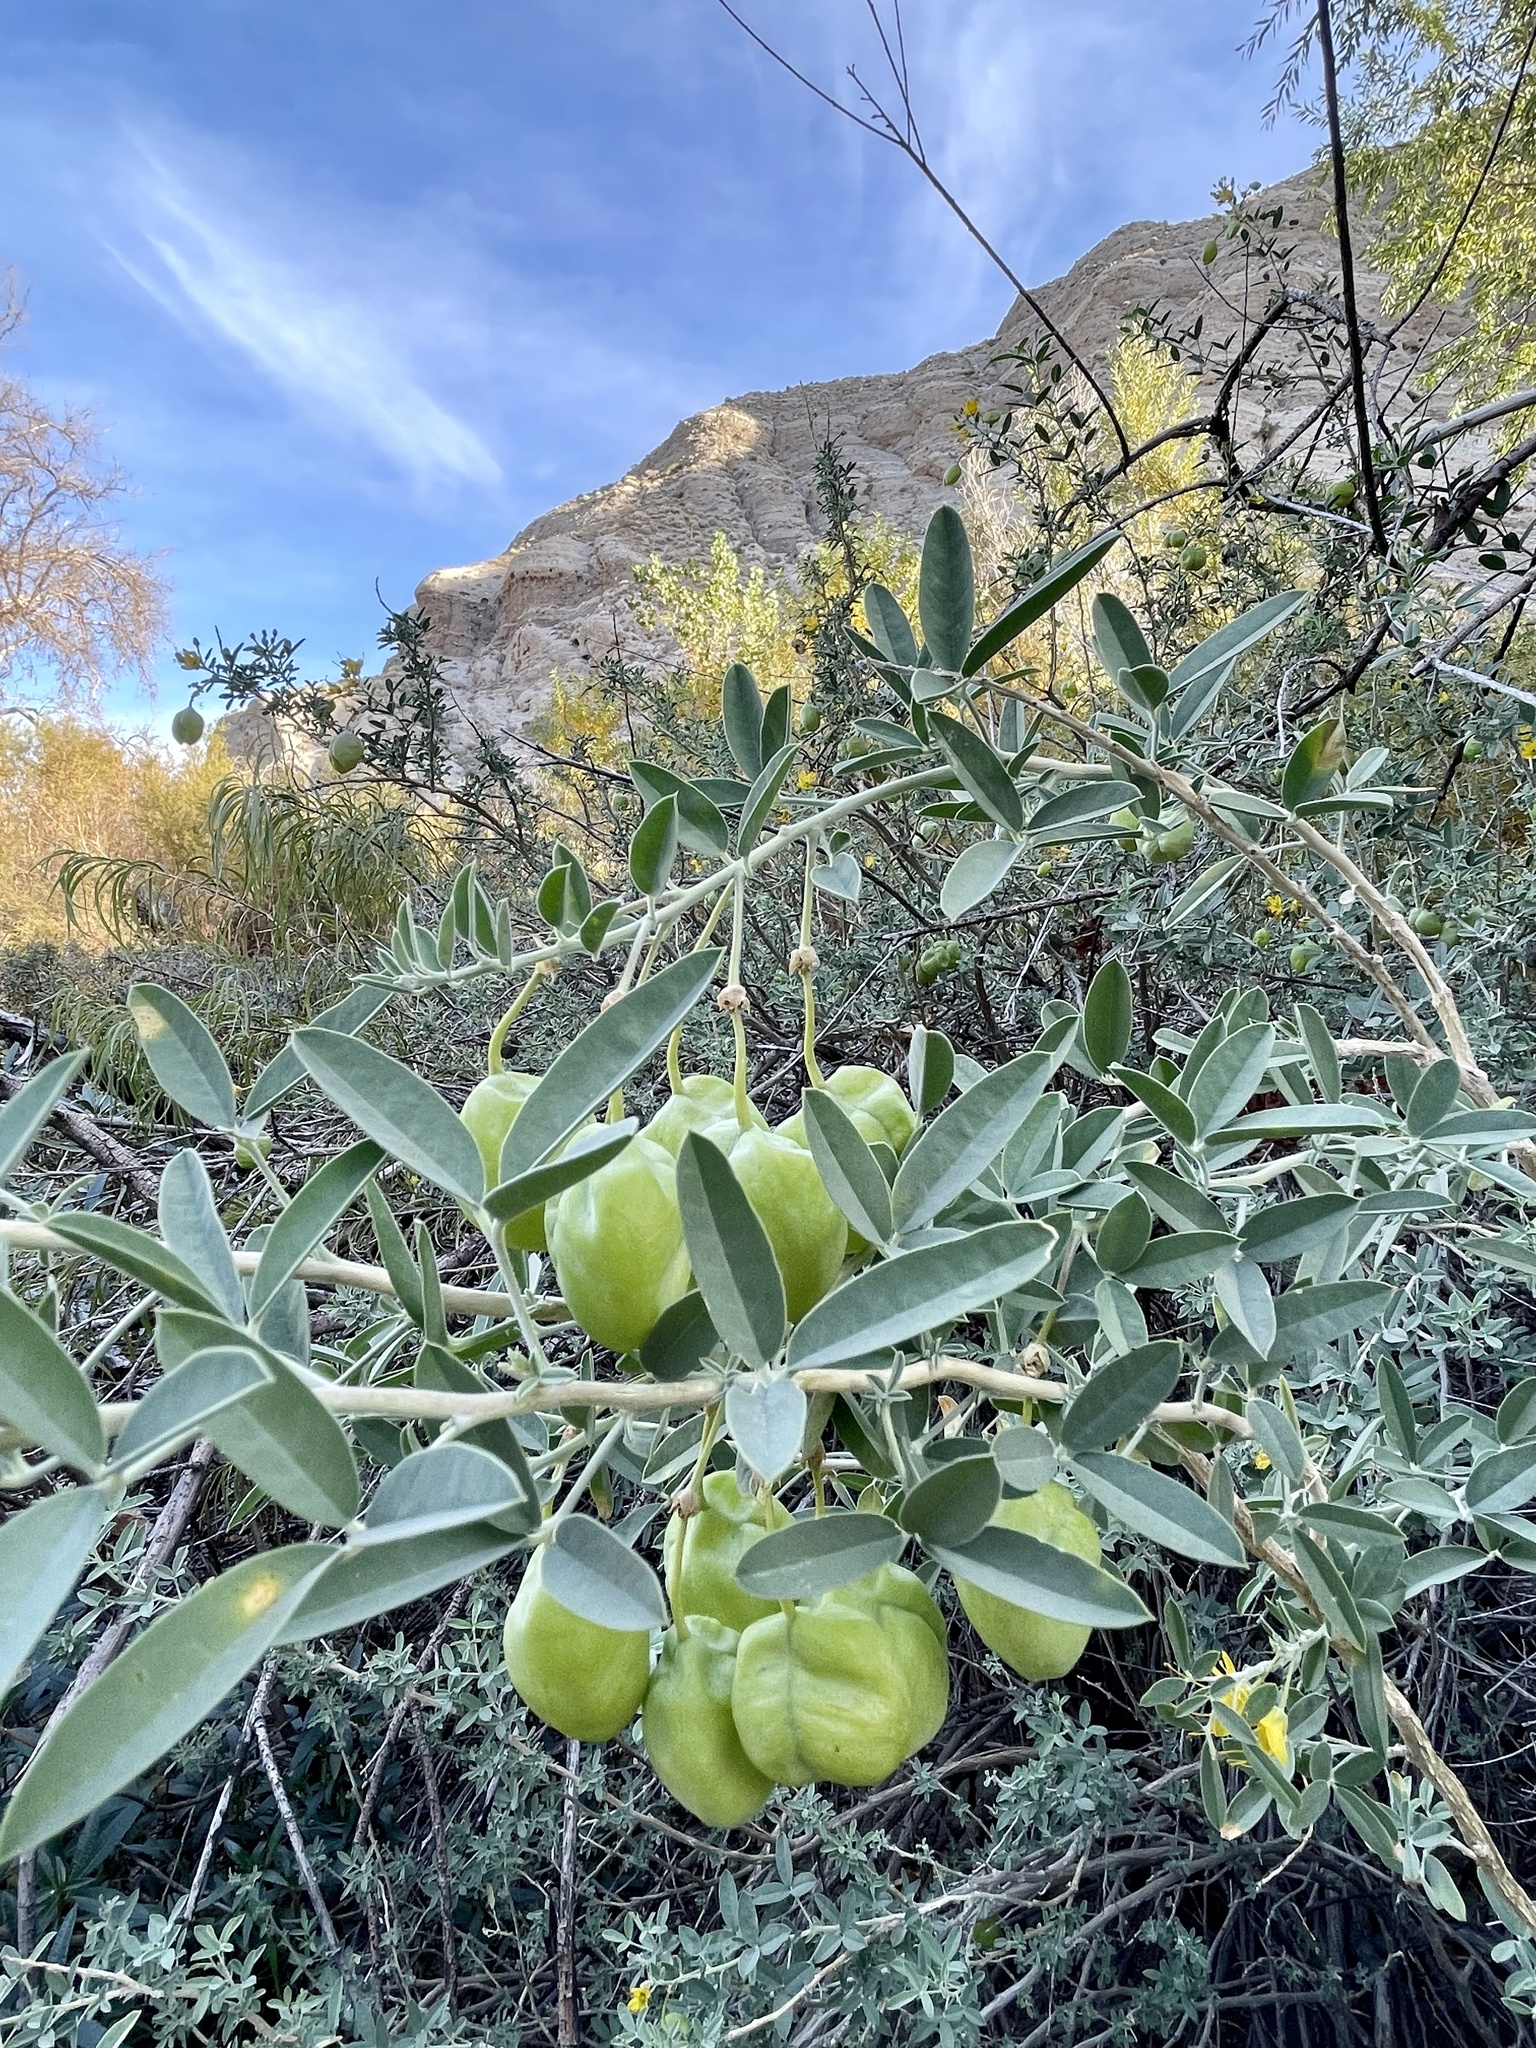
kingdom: Plantae
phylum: Tracheophyta
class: Magnoliopsida
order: Brassicales
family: Cleomaceae
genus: Cleomella
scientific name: Cleomella arborea
